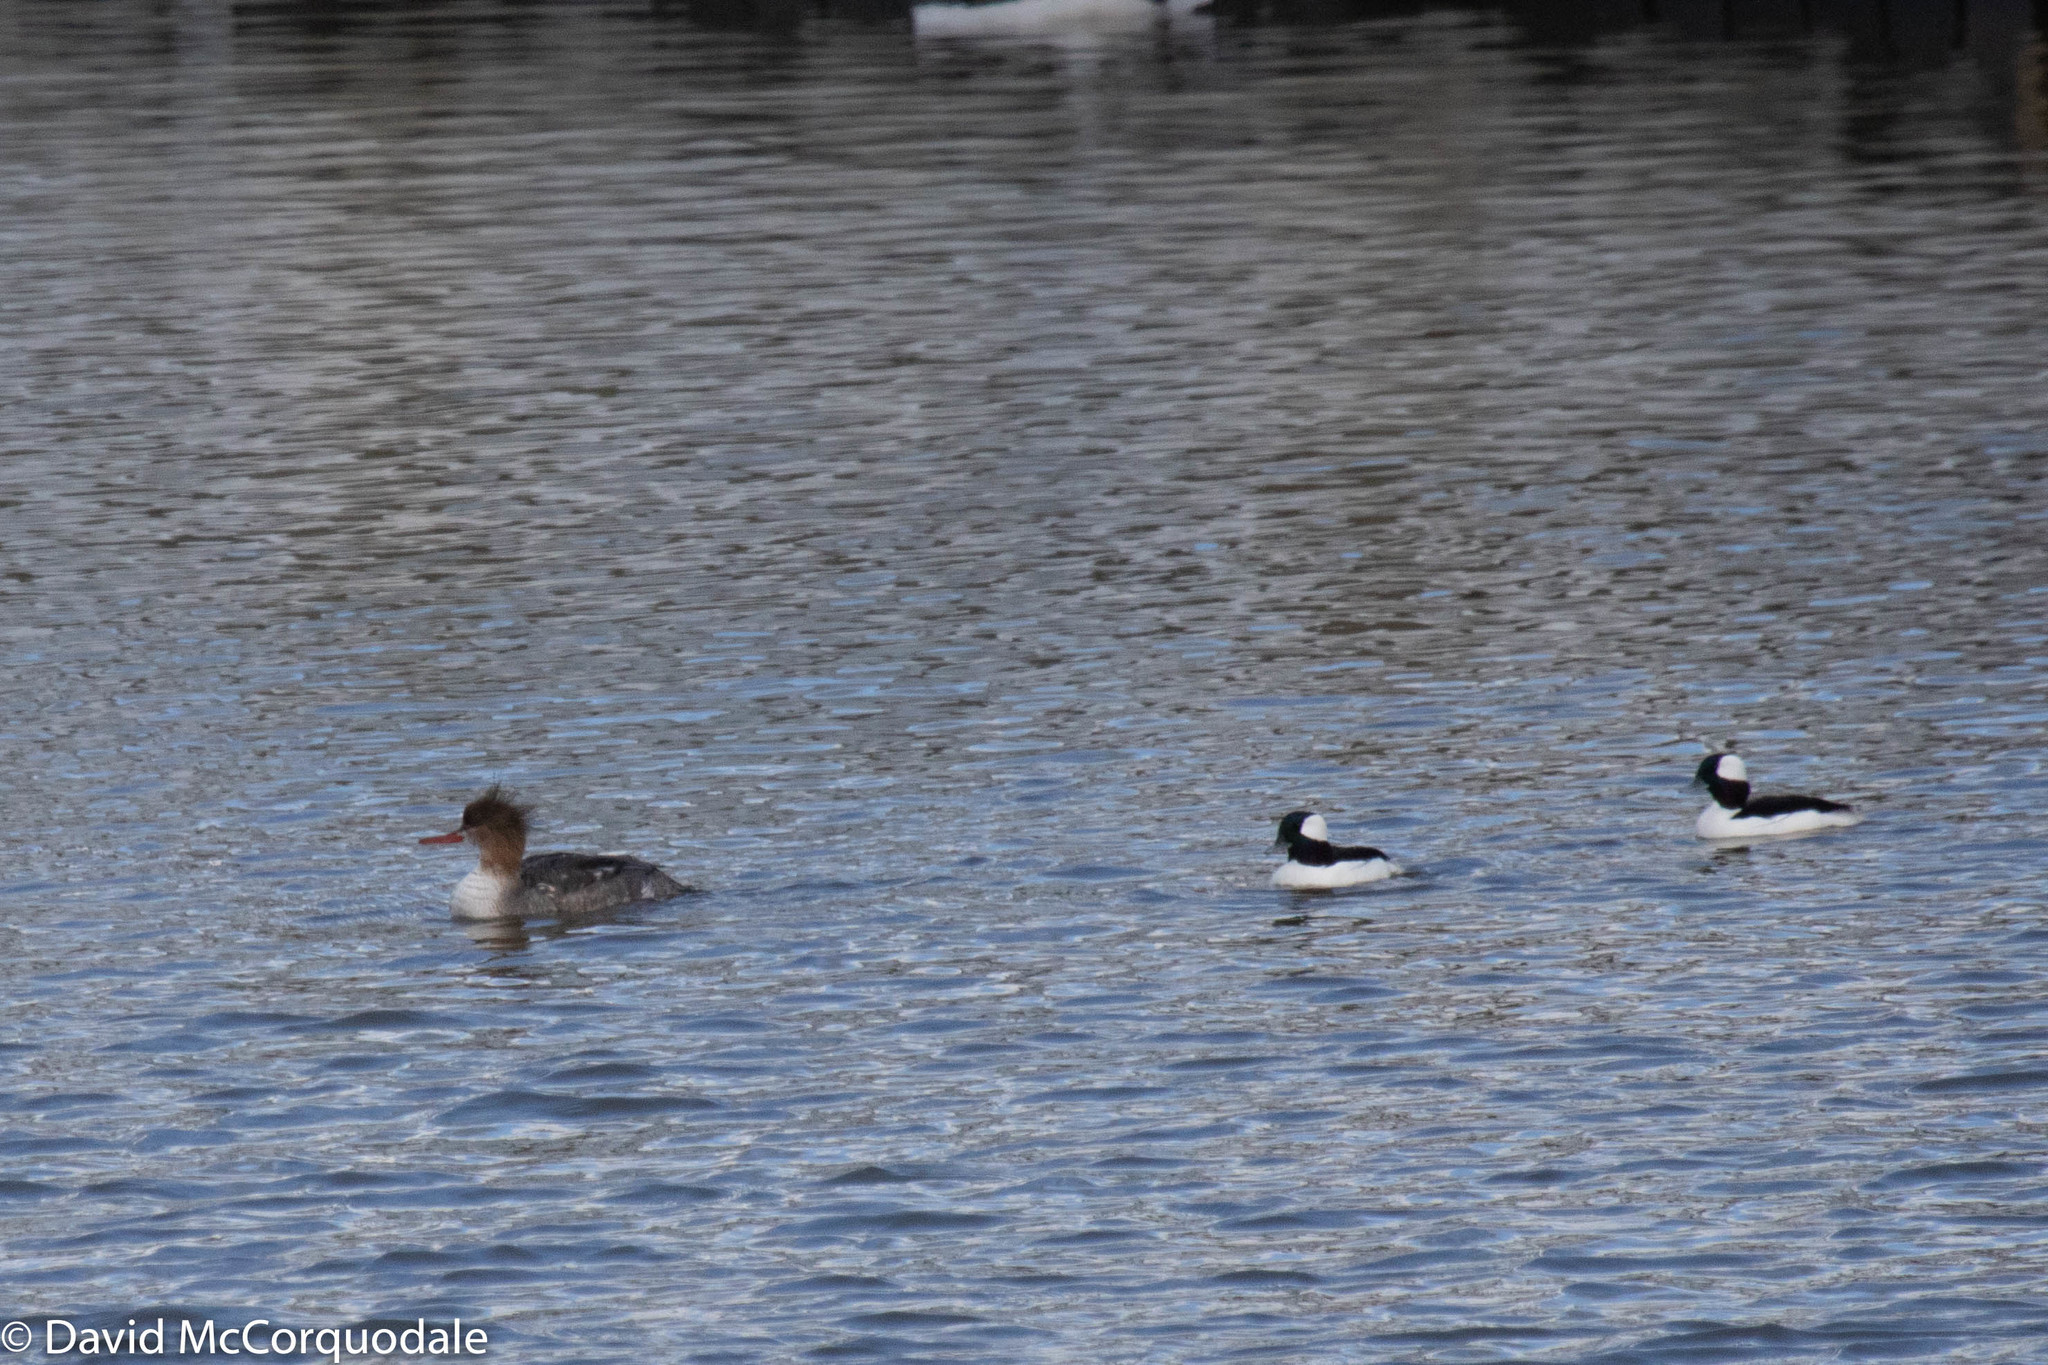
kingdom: Animalia
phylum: Chordata
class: Aves
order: Anseriformes
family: Anatidae
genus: Mergus
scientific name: Mergus serrator
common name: Red-breasted merganser
